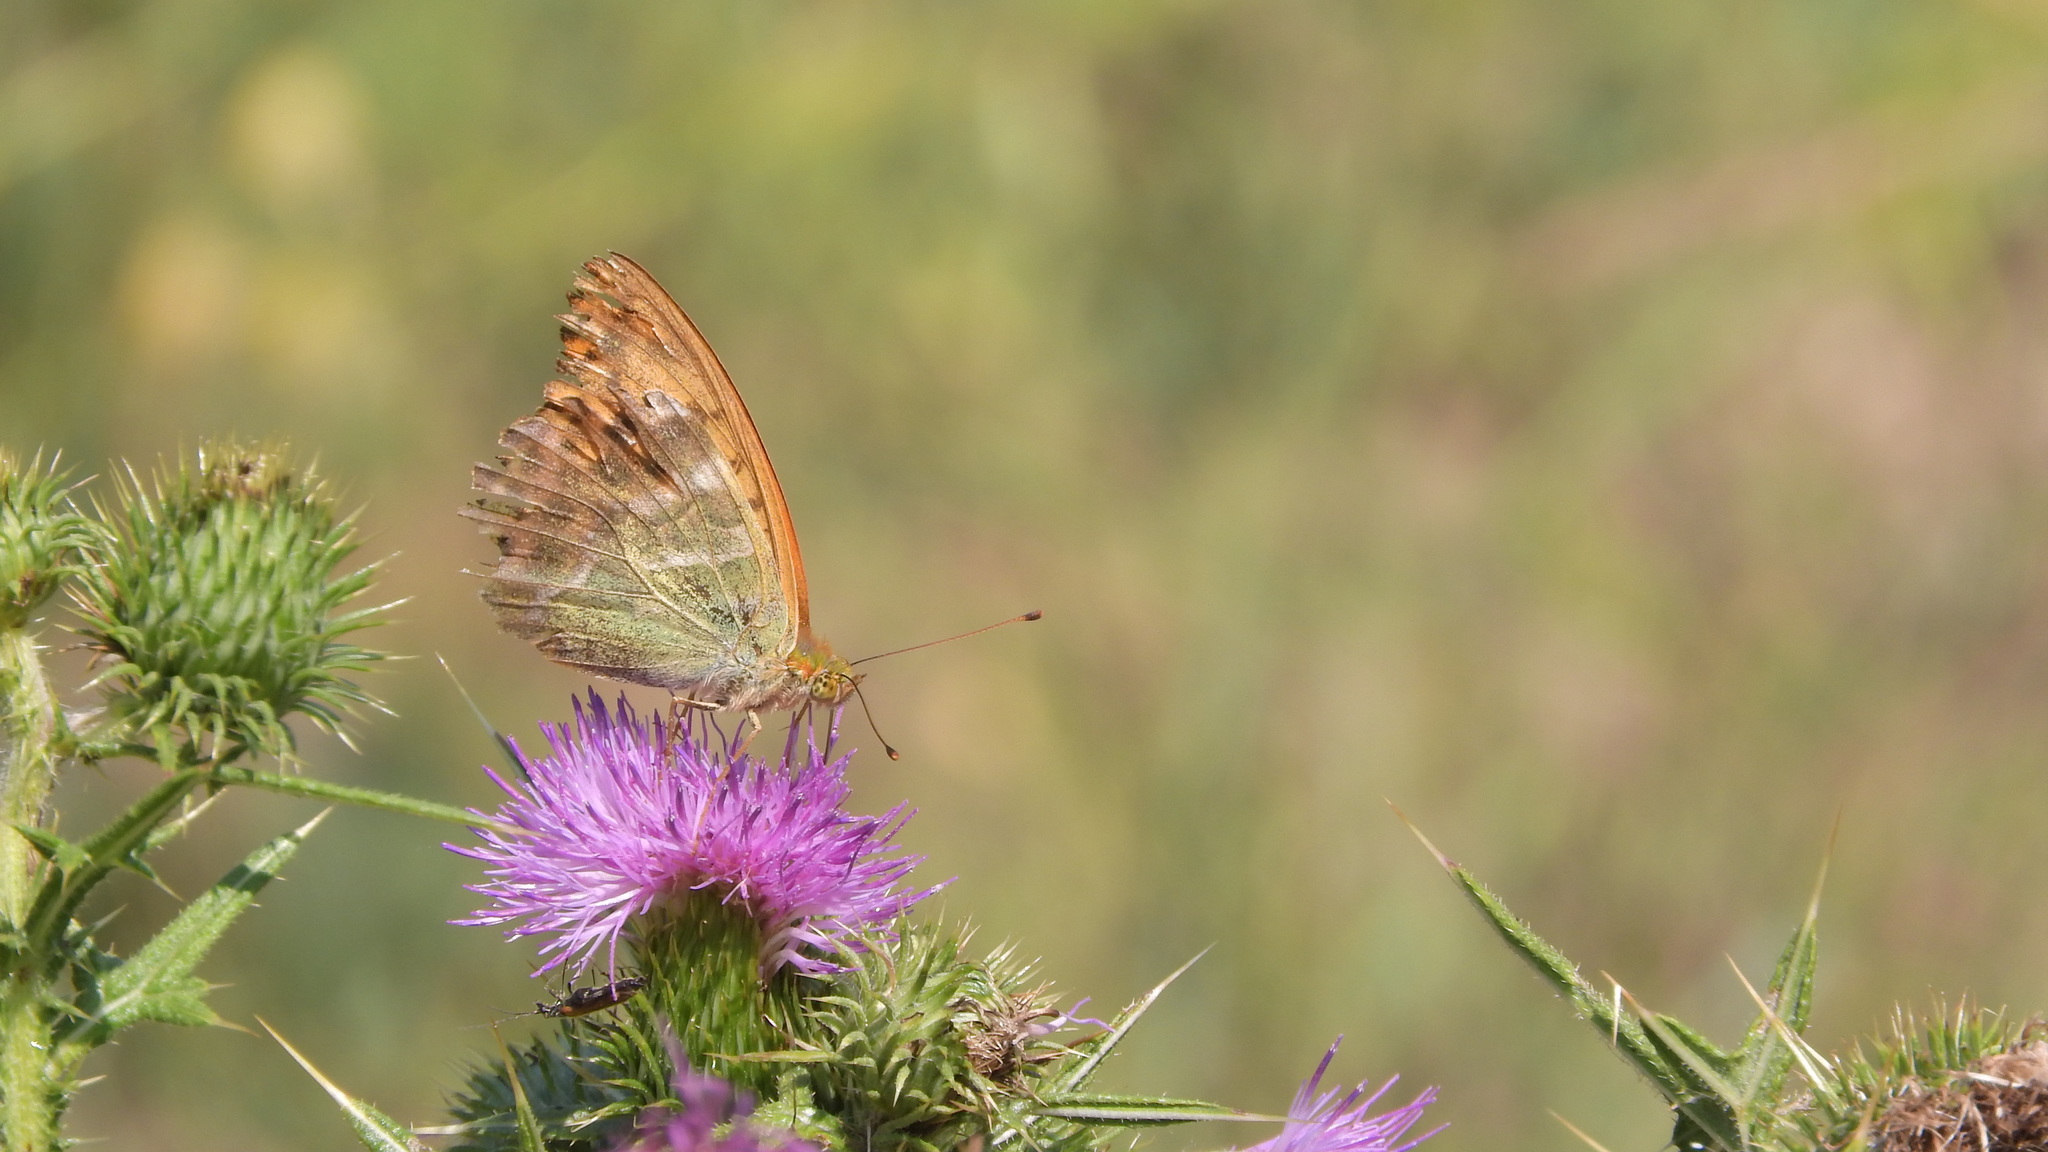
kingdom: Animalia
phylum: Arthropoda
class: Insecta
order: Lepidoptera
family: Nymphalidae
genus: Argynnis
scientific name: Argynnis paphia
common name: Silver-washed fritillary
